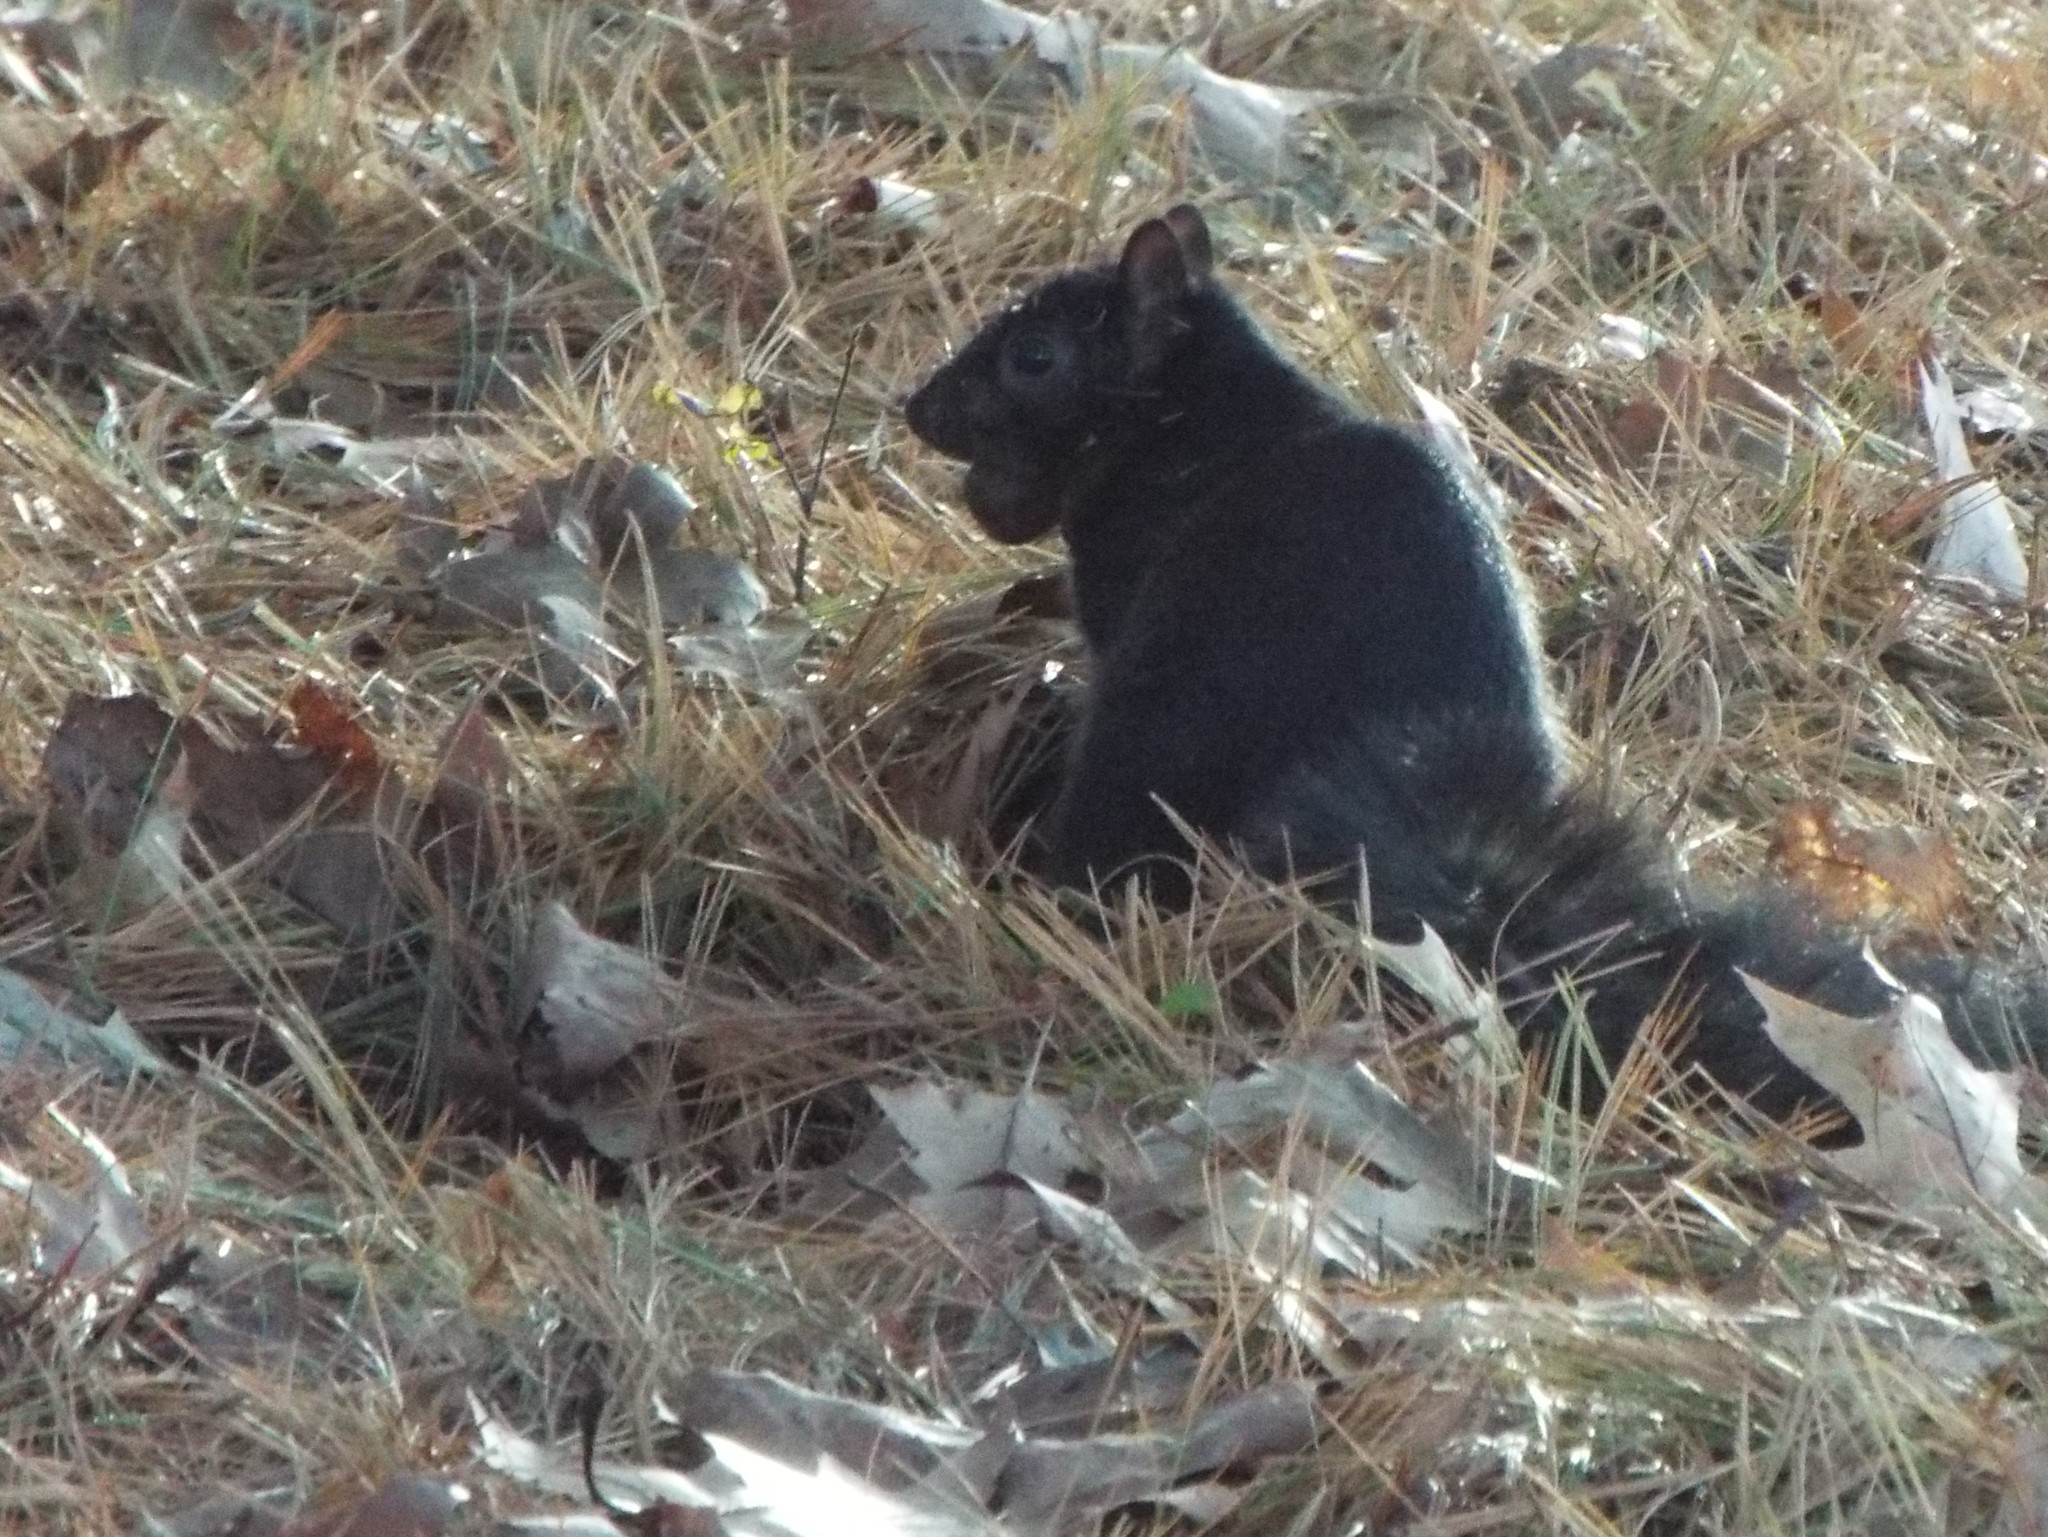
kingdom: Animalia
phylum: Chordata
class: Mammalia
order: Rodentia
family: Sciuridae
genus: Sciurus
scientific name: Sciurus carolinensis
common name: Eastern gray squirrel
